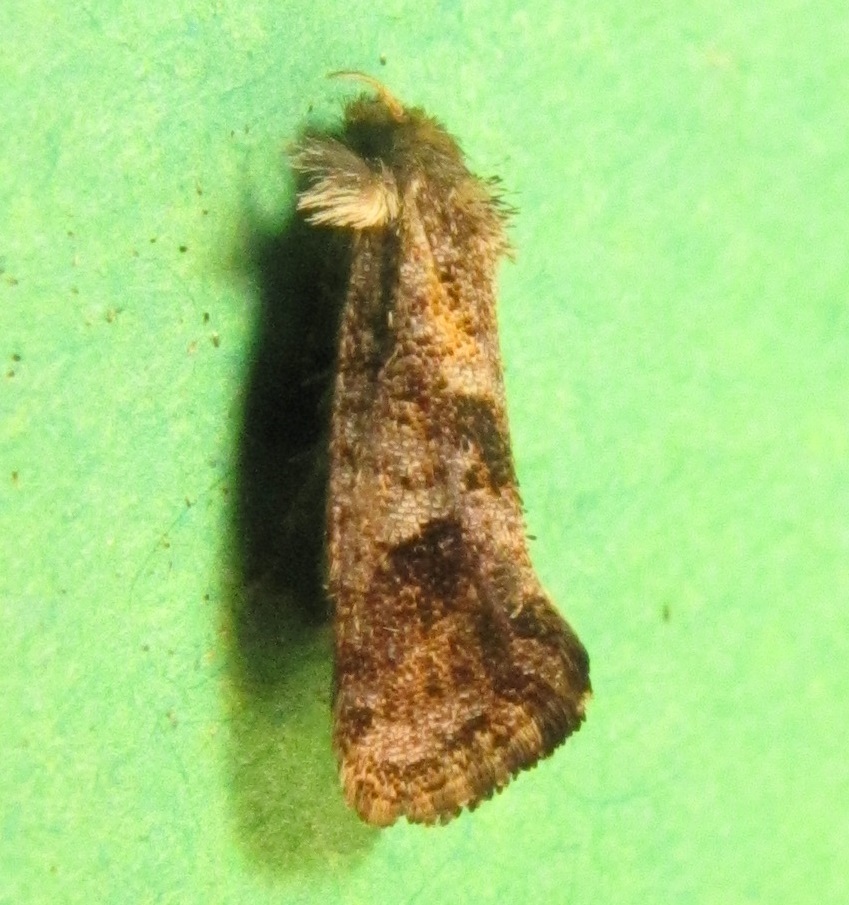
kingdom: Animalia
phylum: Arthropoda
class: Insecta
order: Lepidoptera
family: Tineidae
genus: Acrolophus
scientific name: Acrolophus panamae
